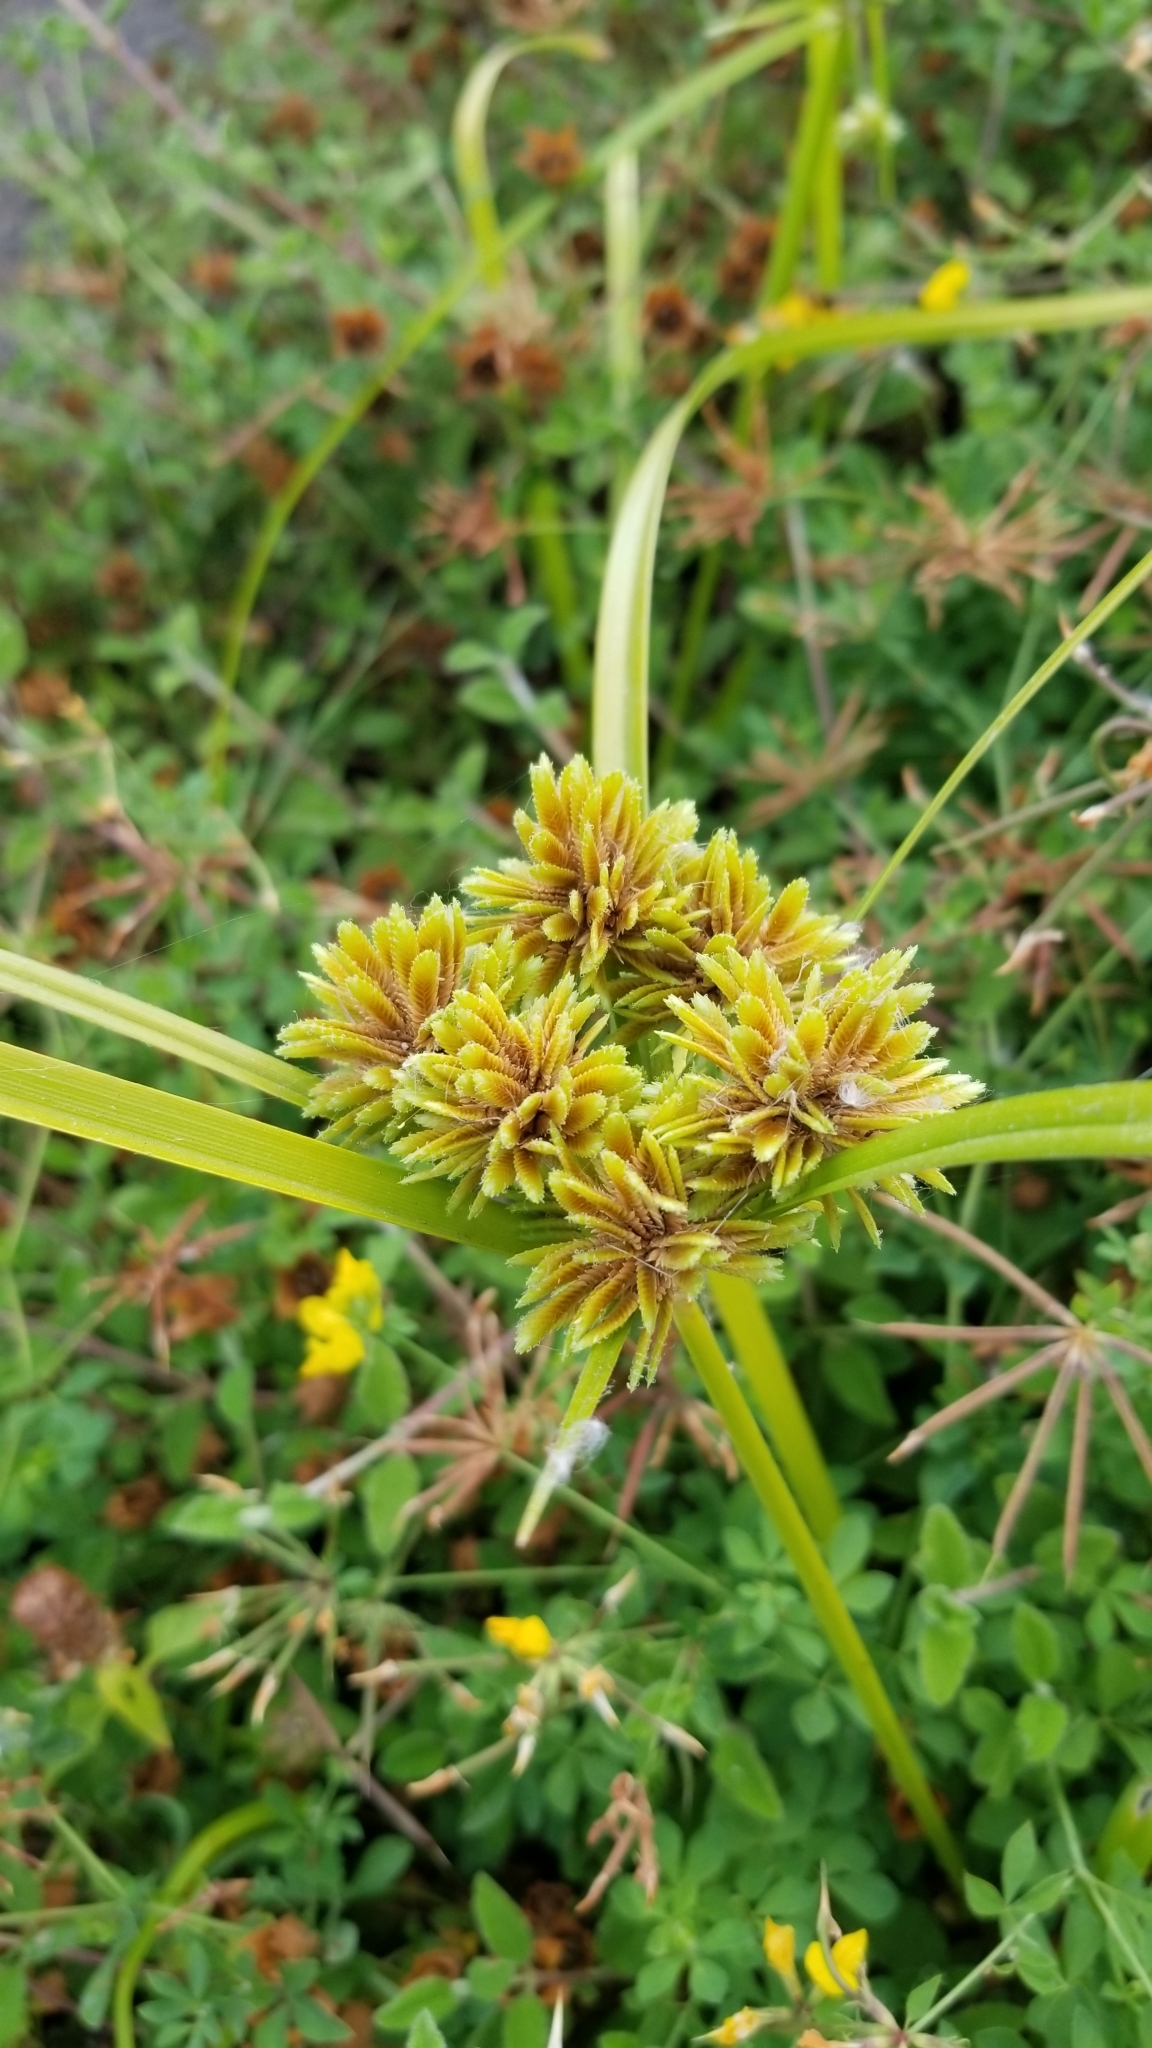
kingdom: Plantae
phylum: Tracheophyta
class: Liliopsida
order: Poales
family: Cyperaceae
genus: Cyperus
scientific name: Cyperus eragrostis
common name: Tall flatsedge
